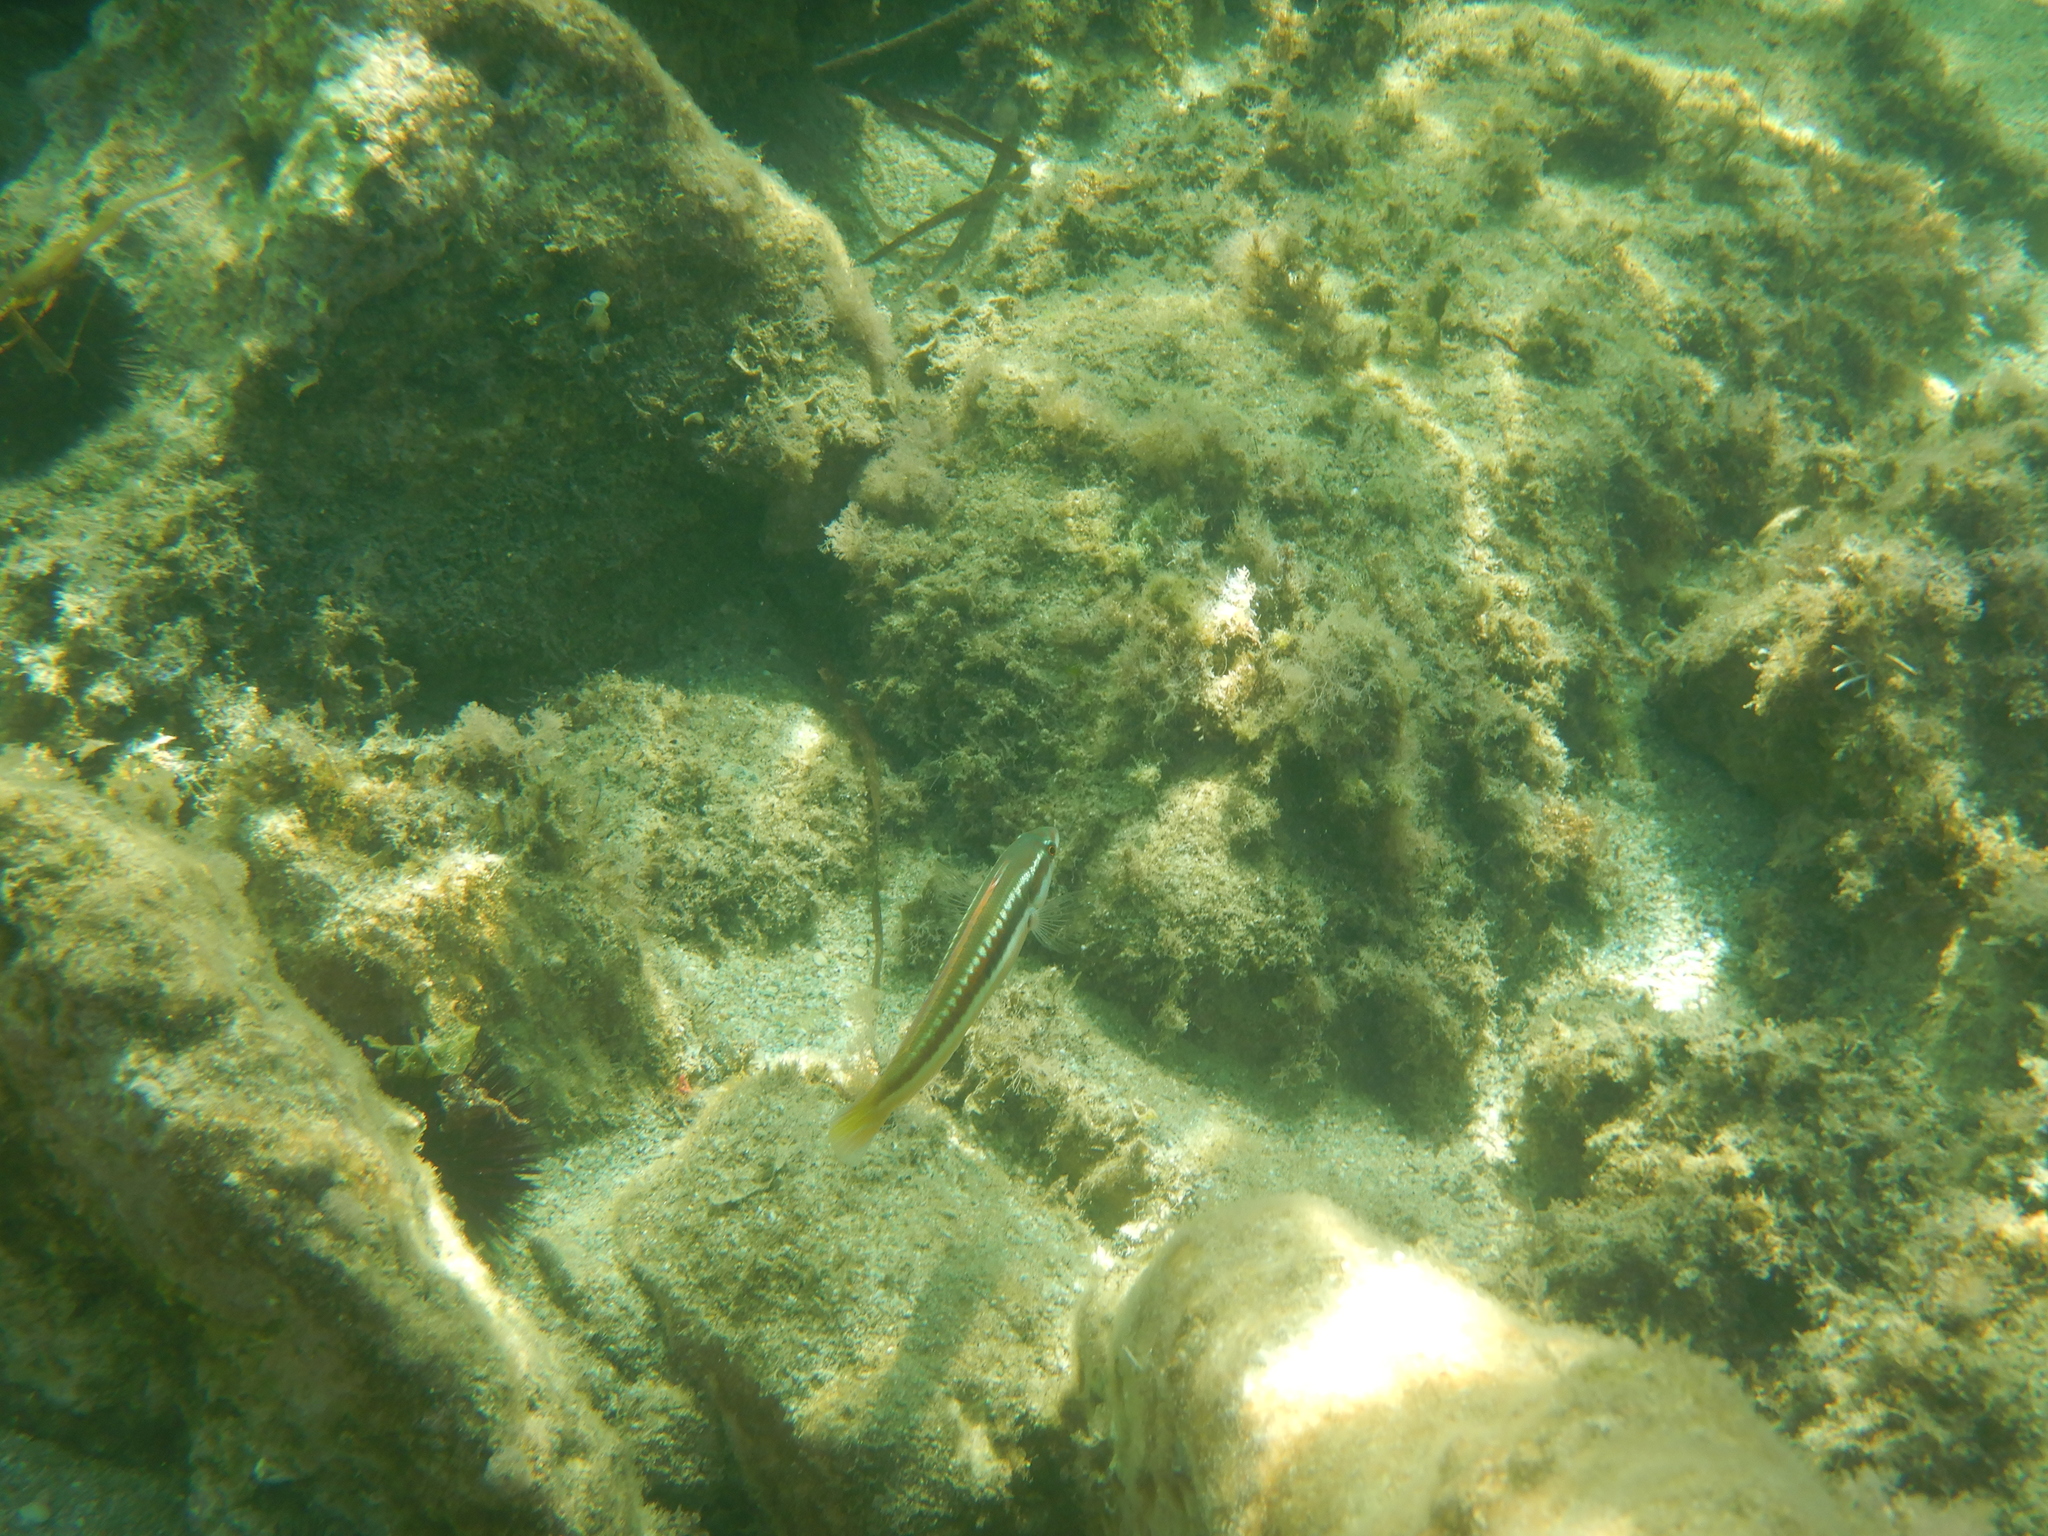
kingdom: Animalia
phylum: Chordata
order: Perciformes
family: Labridae
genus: Coris
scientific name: Coris julis
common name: Rainbow wrasse
